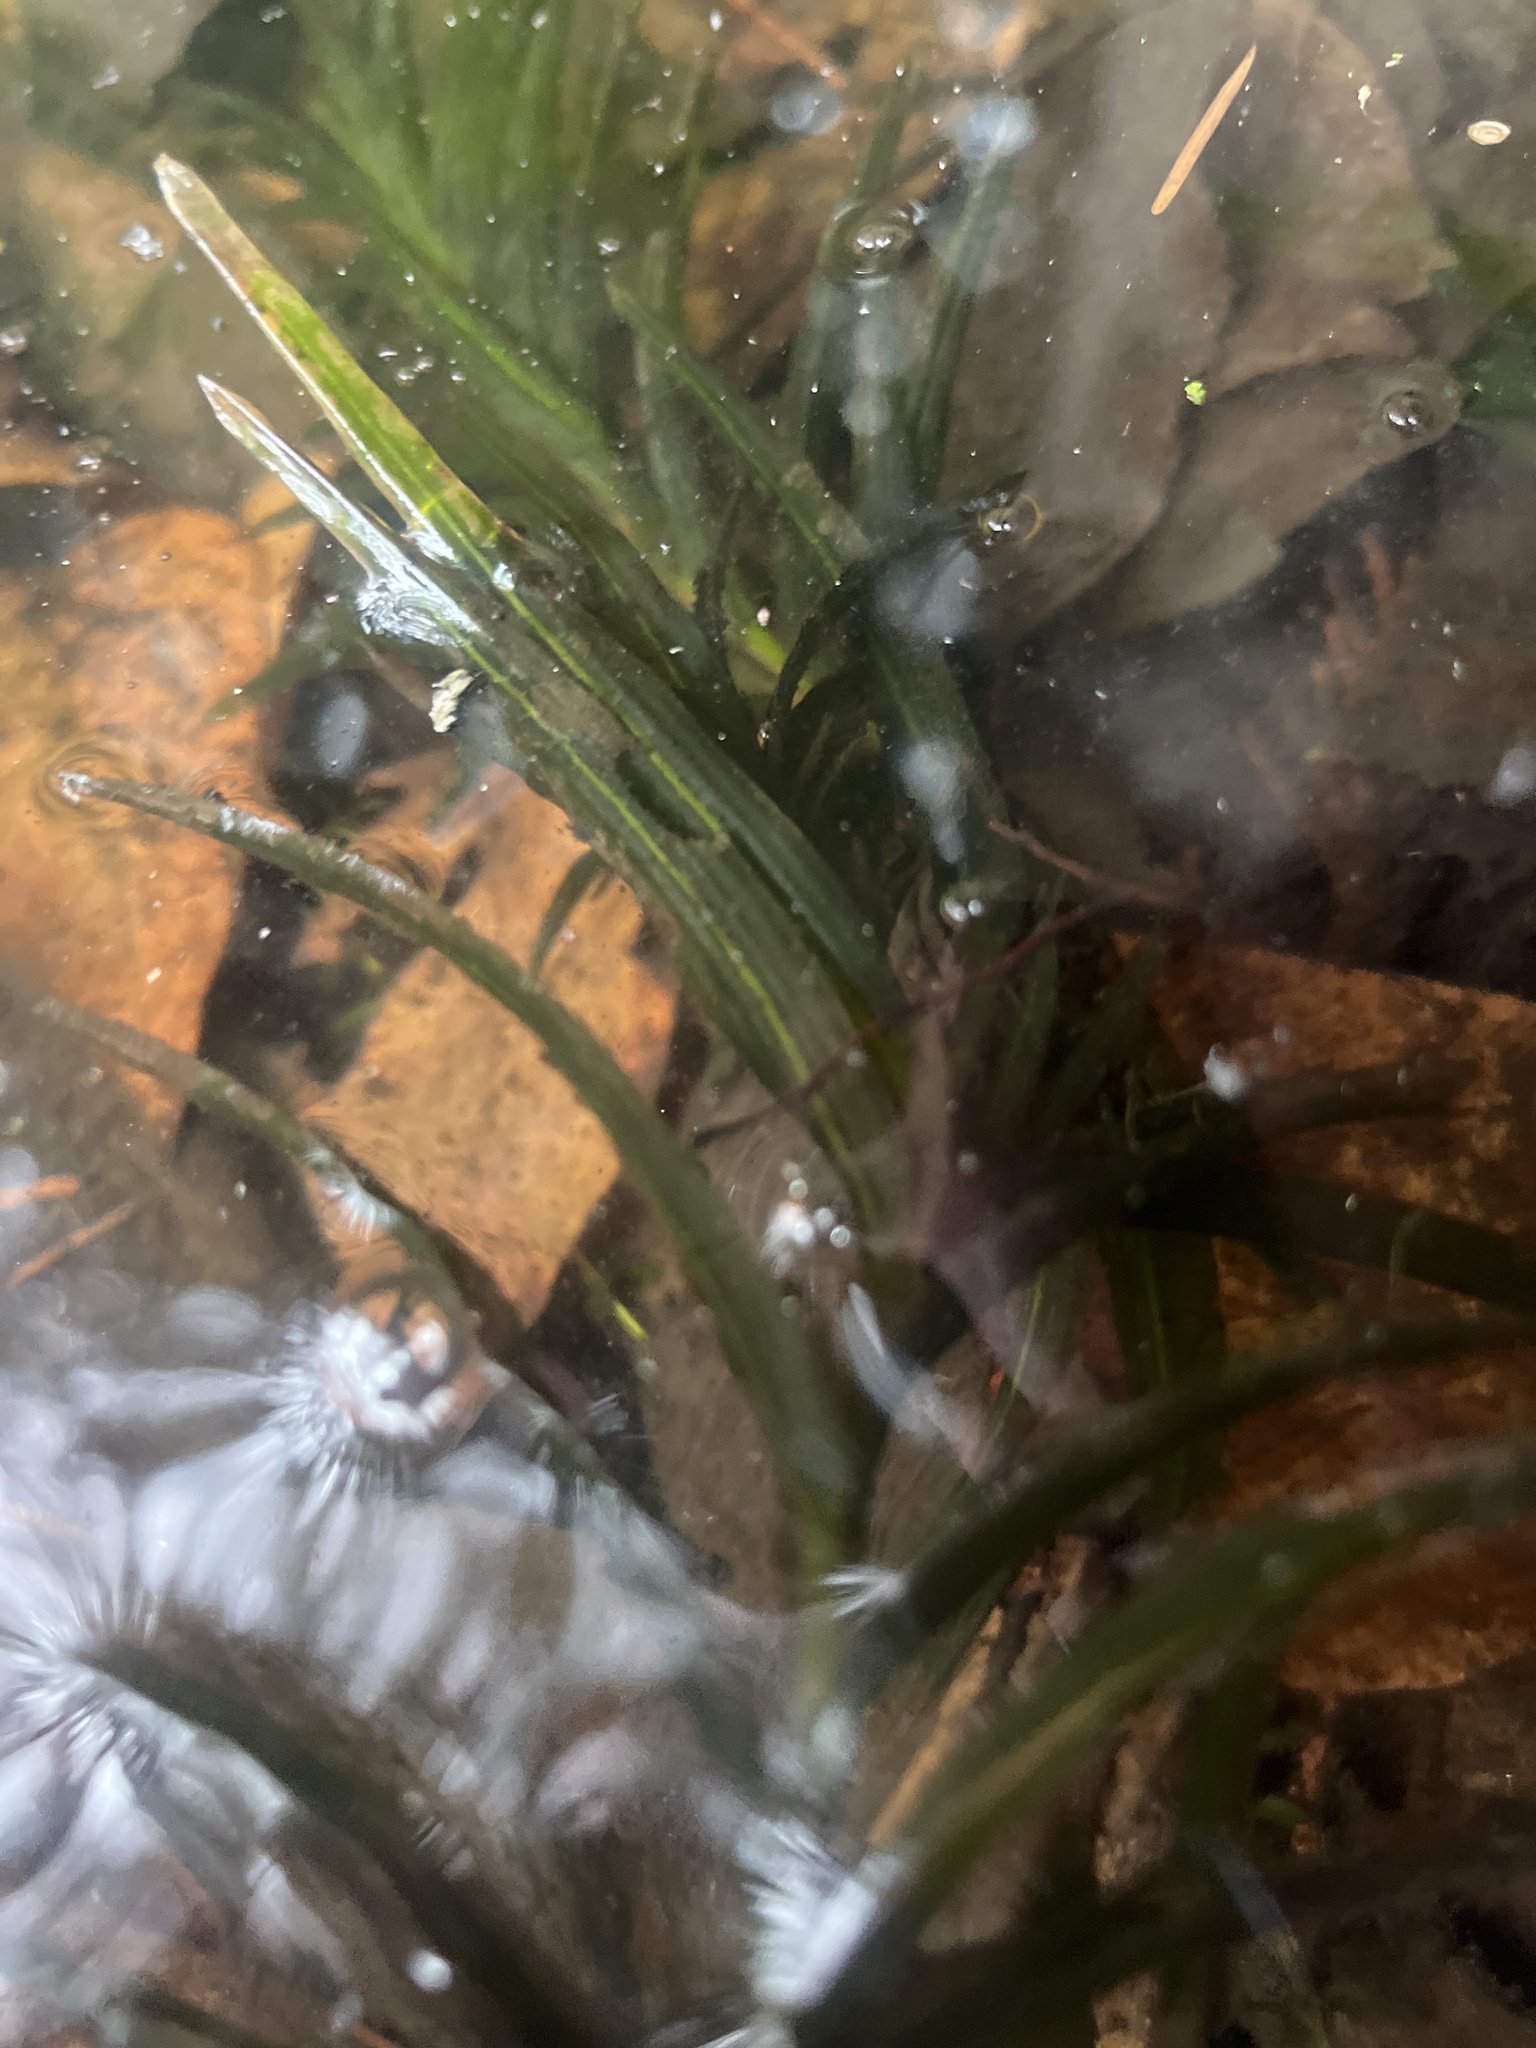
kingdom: Plantae
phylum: Tracheophyta
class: Liliopsida
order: Alismatales
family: Potamogetonaceae
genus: Potamogeton
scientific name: Potamogeton robbinsii
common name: Fern pondweed
